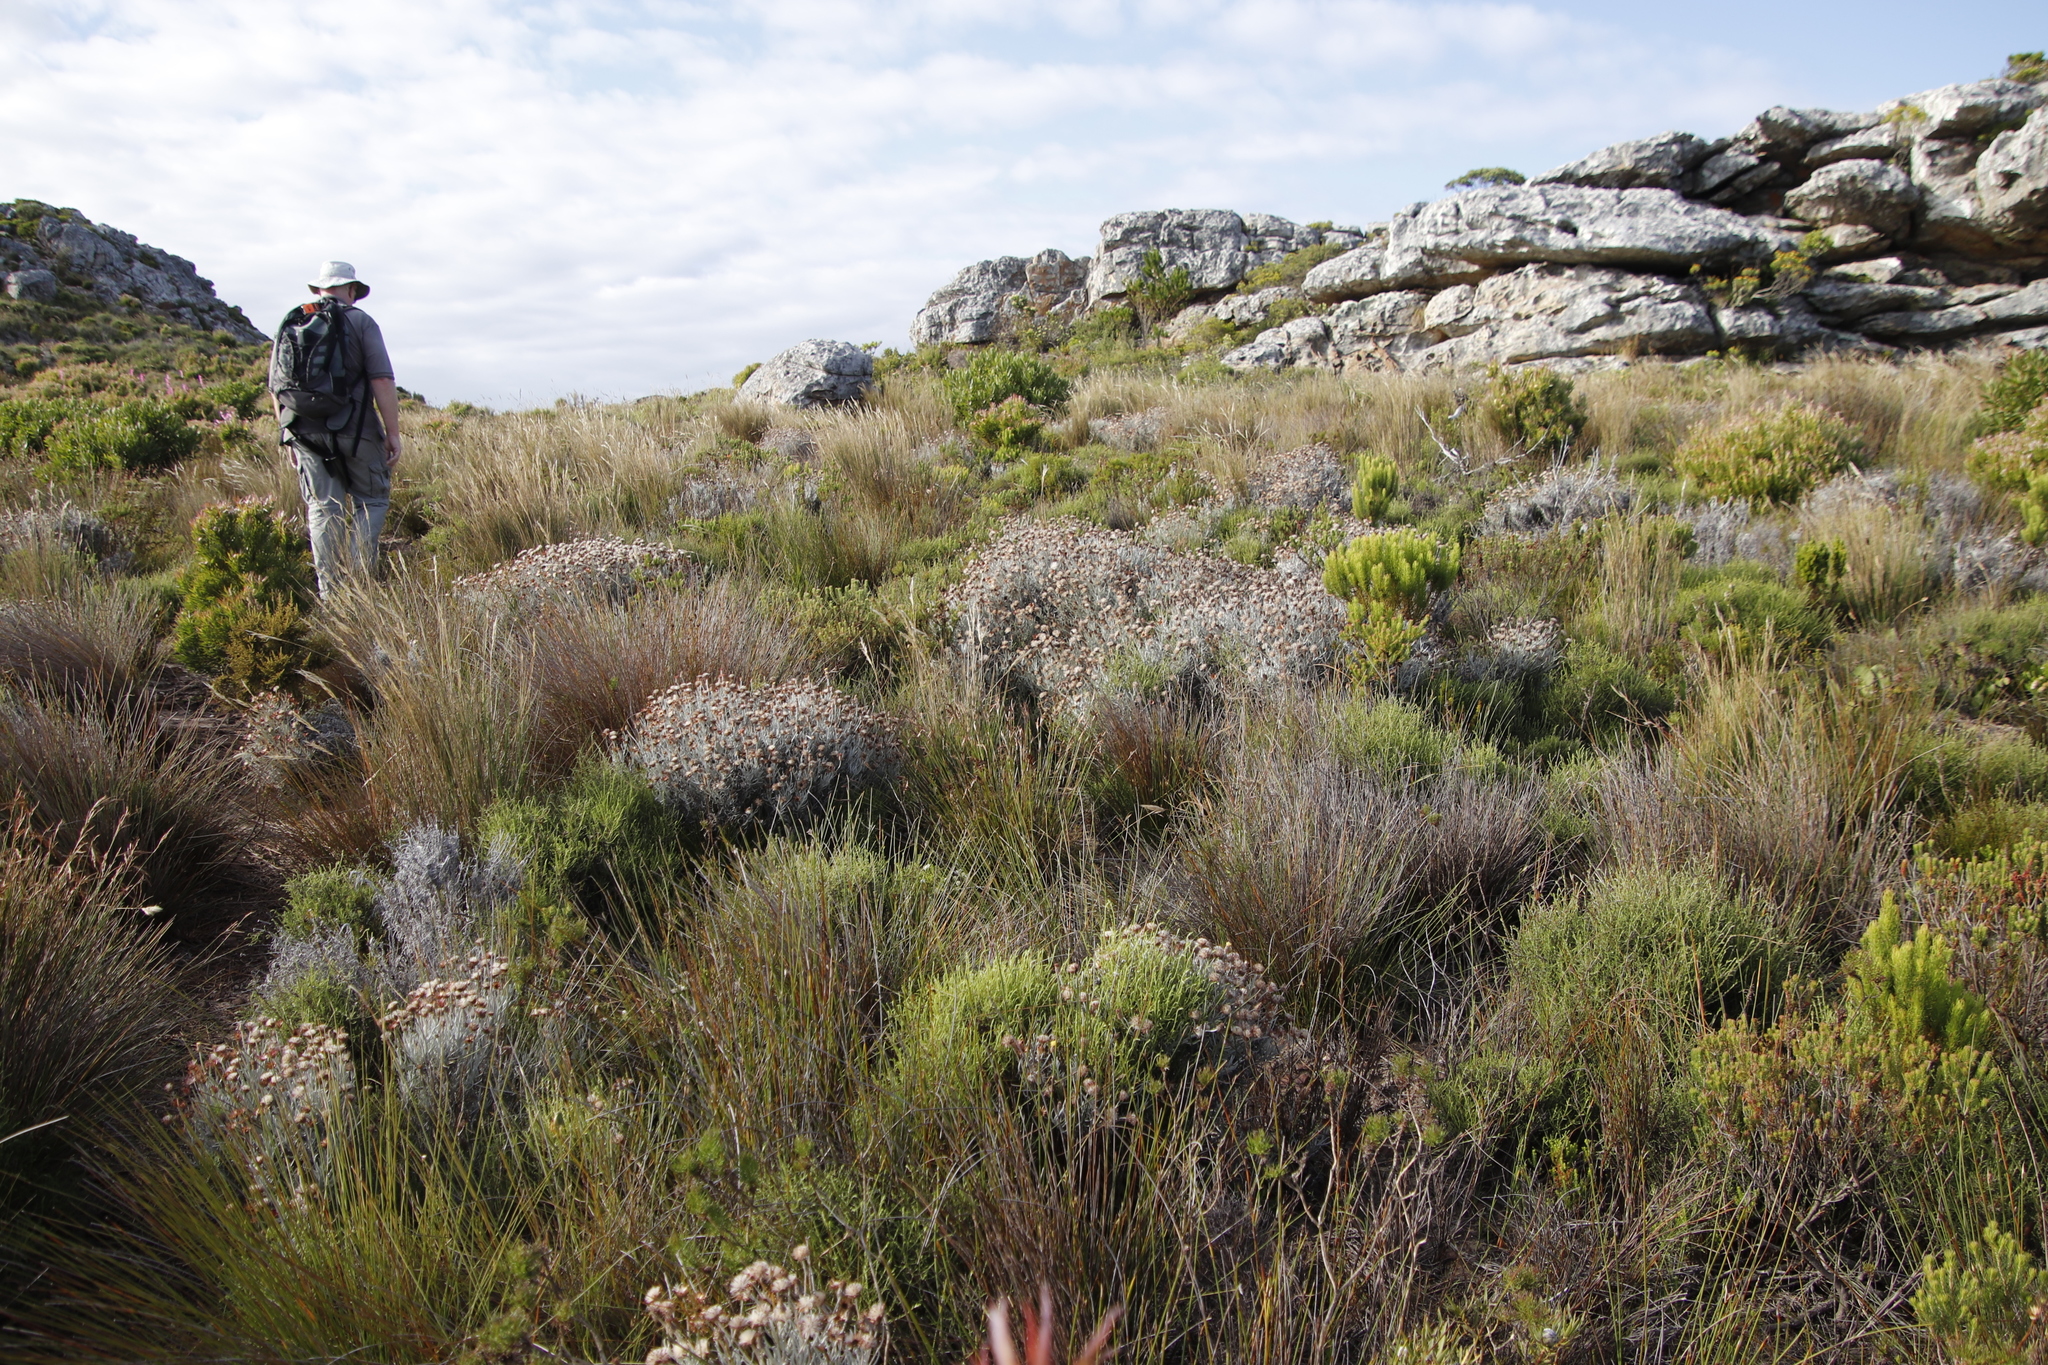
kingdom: Plantae
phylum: Tracheophyta
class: Magnoliopsida
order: Asterales
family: Asteraceae
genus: Syncarpha
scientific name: Syncarpha gnaphaloides
